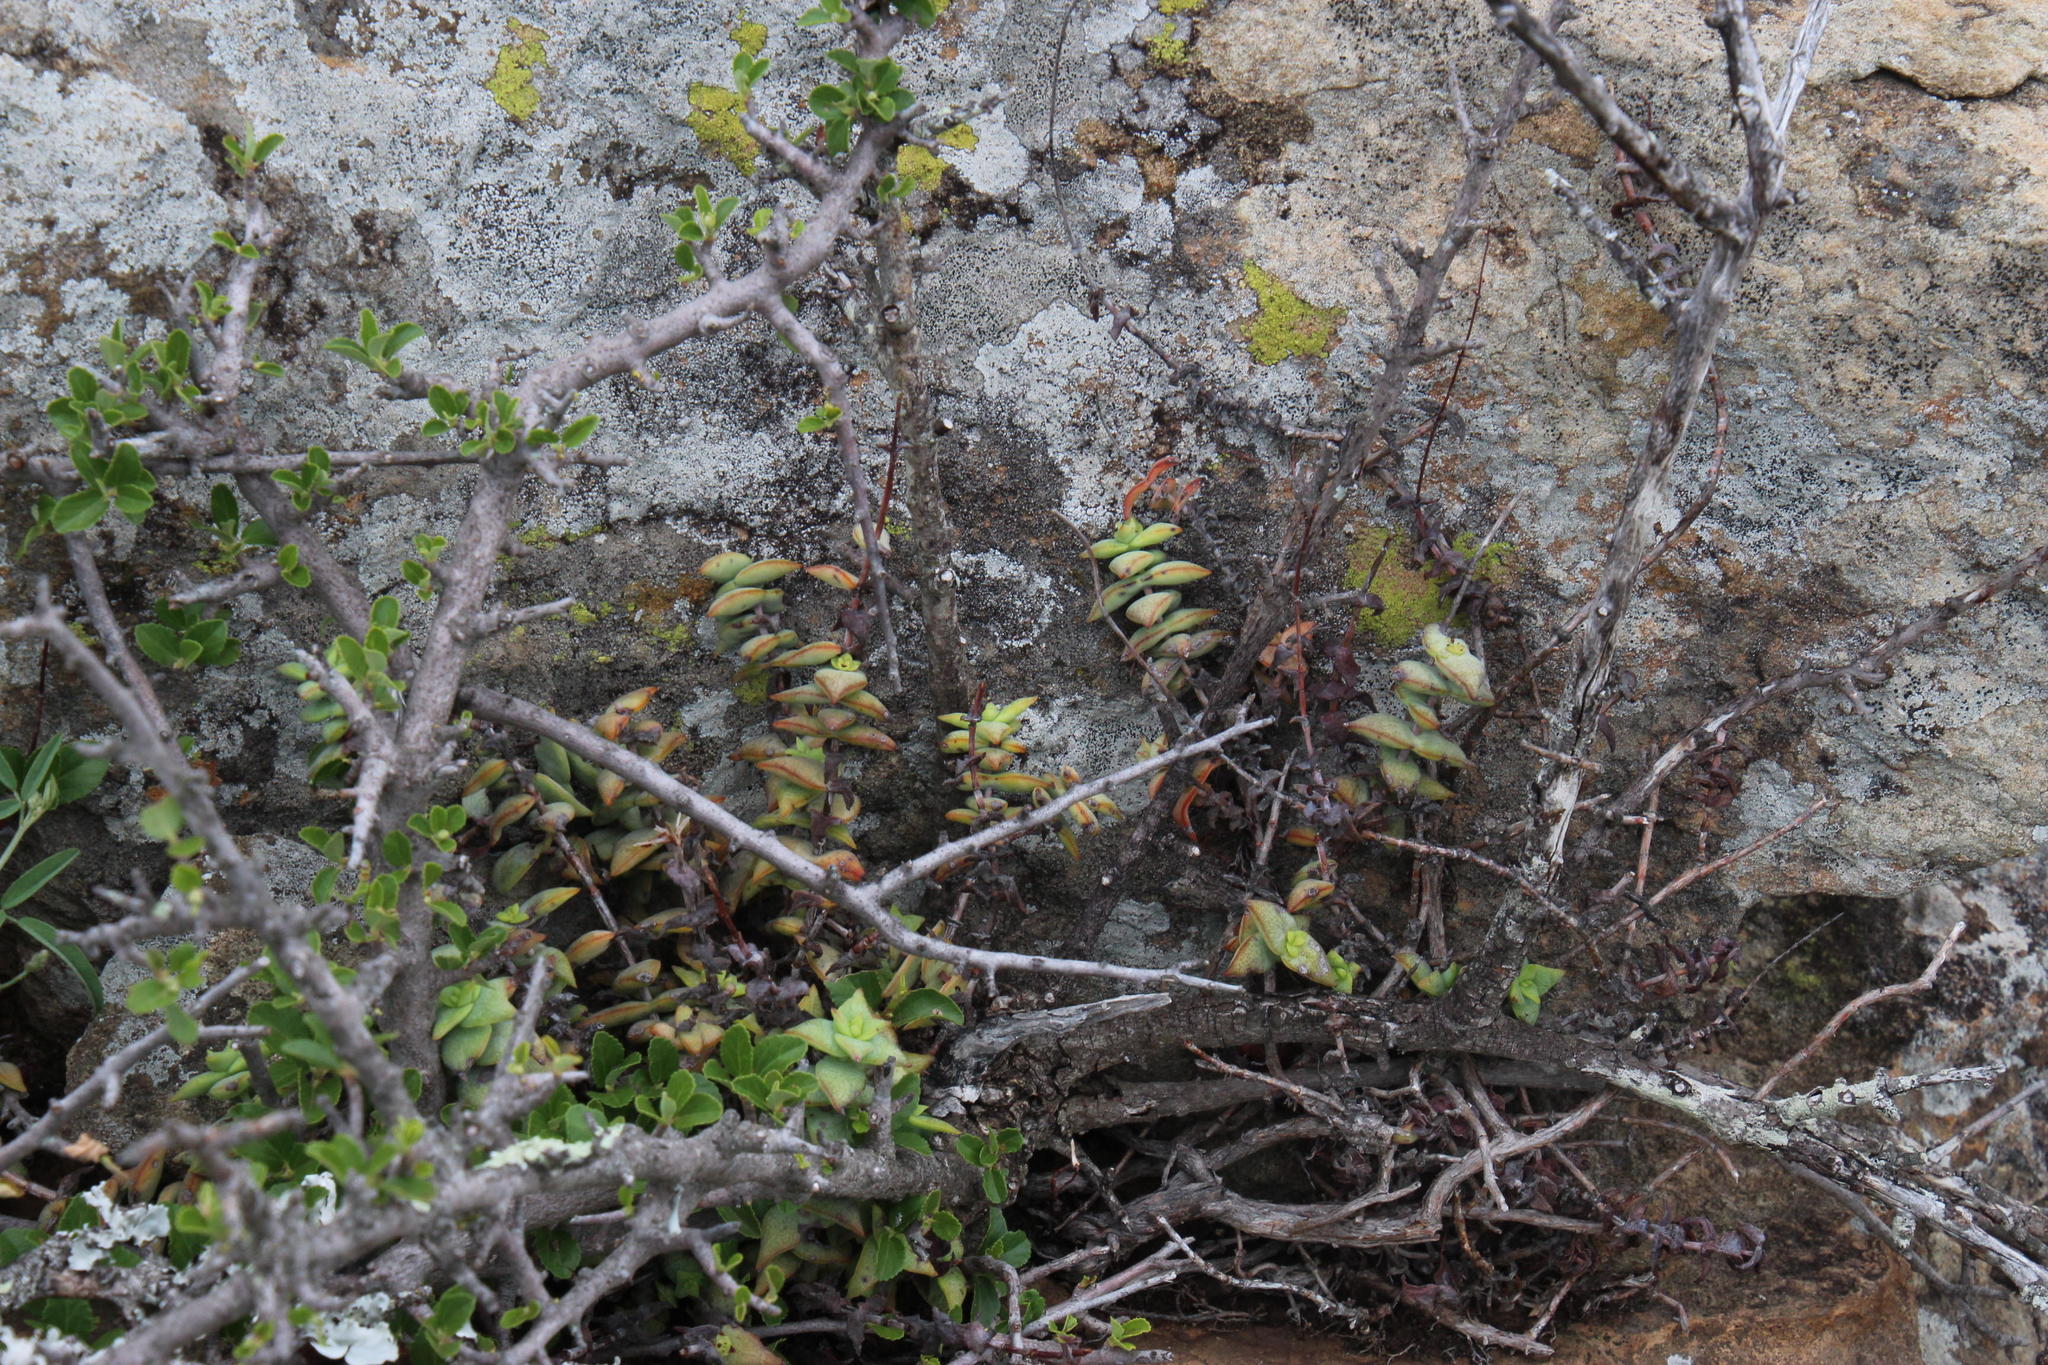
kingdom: Plantae
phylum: Tracheophyta
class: Magnoliopsida
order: Saxifragales
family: Crassulaceae
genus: Crassula
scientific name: Crassula perforata
